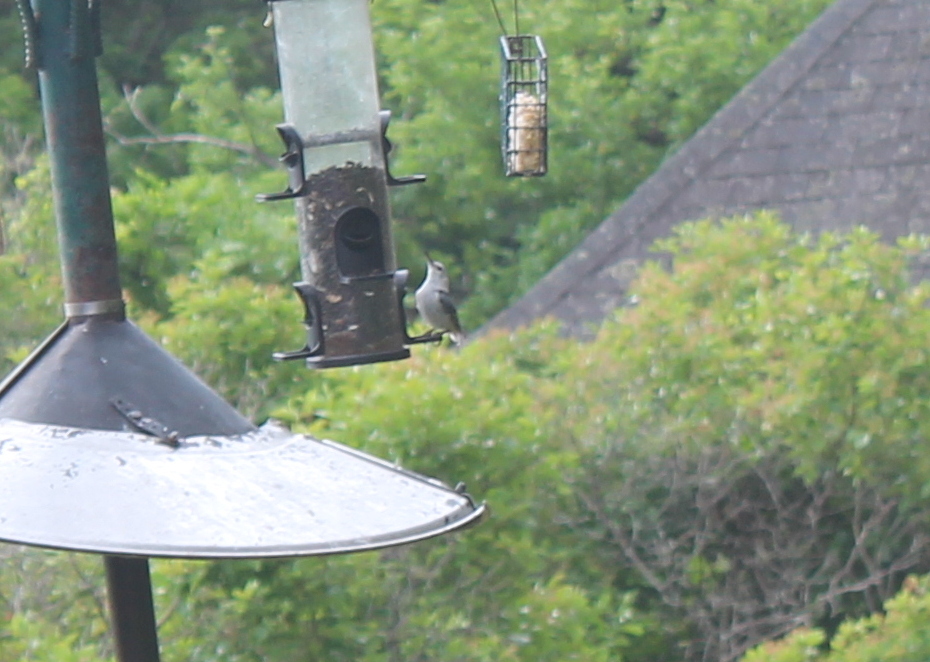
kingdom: Animalia
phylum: Chordata
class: Aves
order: Passeriformes
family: Sittidae
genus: Sitta
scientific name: Sitta carolinensis
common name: White-breasted nuthatch
